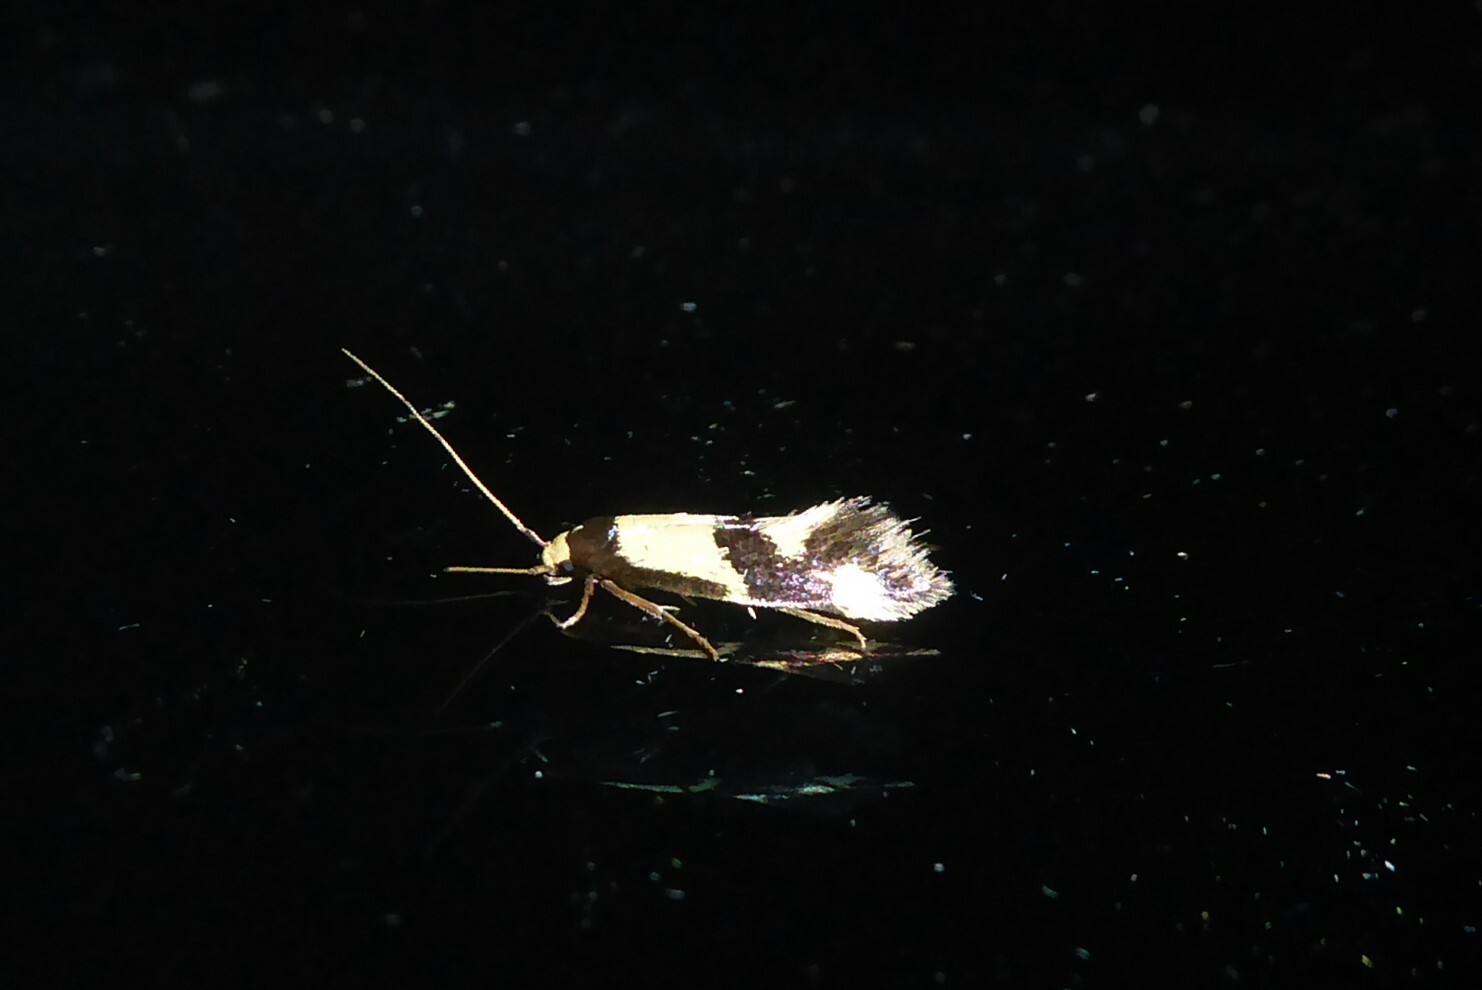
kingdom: Animalia
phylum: Arthropoda
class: Insecta
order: Lepidoptera
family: Tineidae
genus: Opogona
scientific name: Opogona comptella
